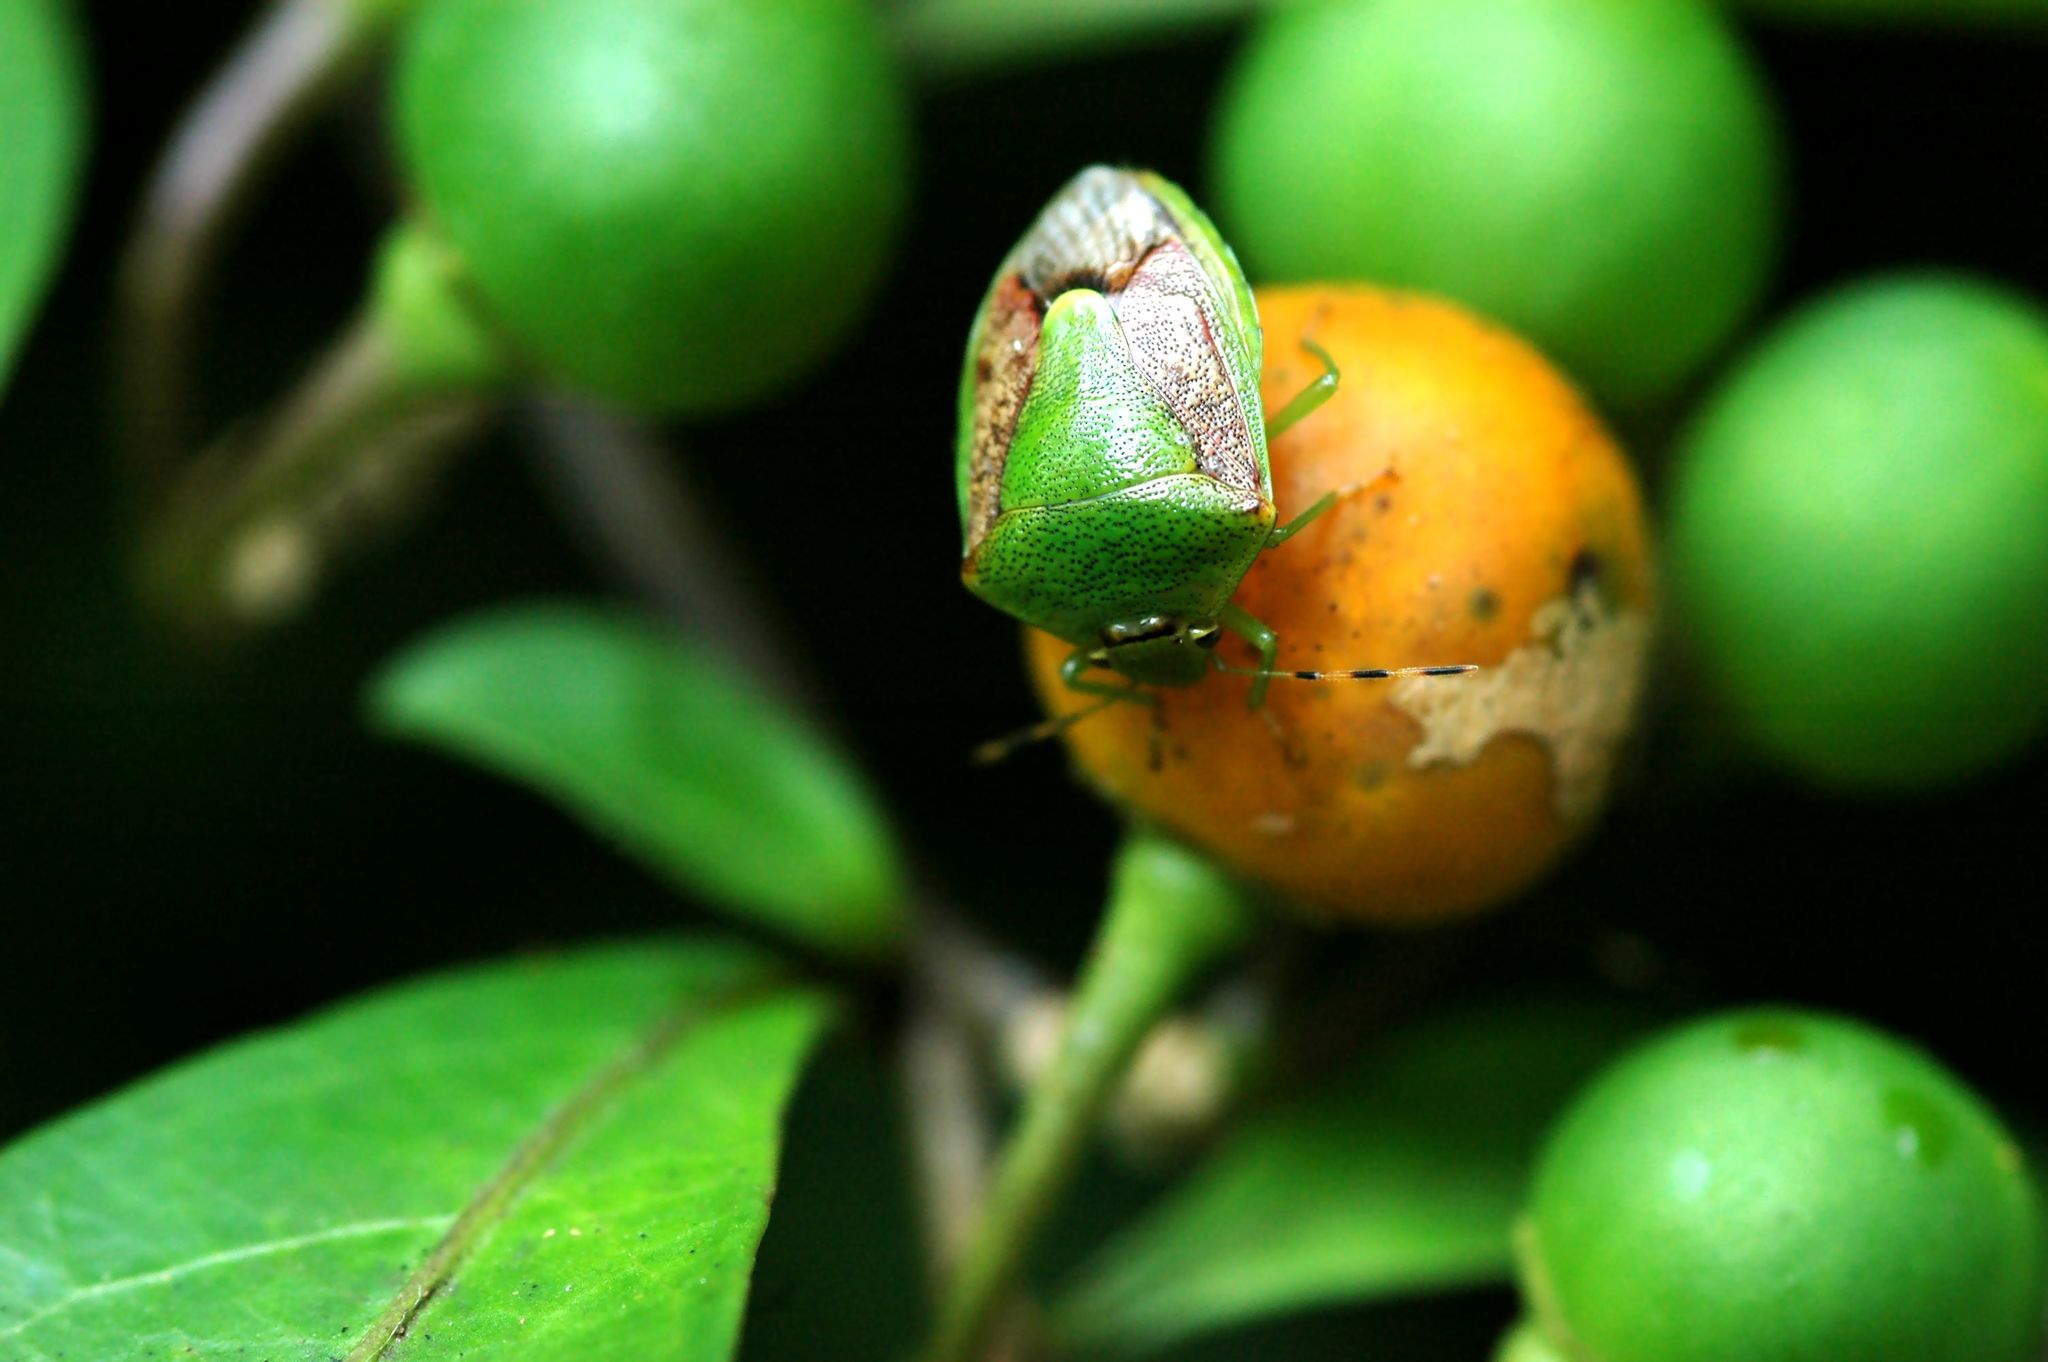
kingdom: Animalia
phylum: Arthropoda
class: Insecta
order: Hemiptera
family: Pentatomidae
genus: Plautia
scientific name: Plautia crossota
